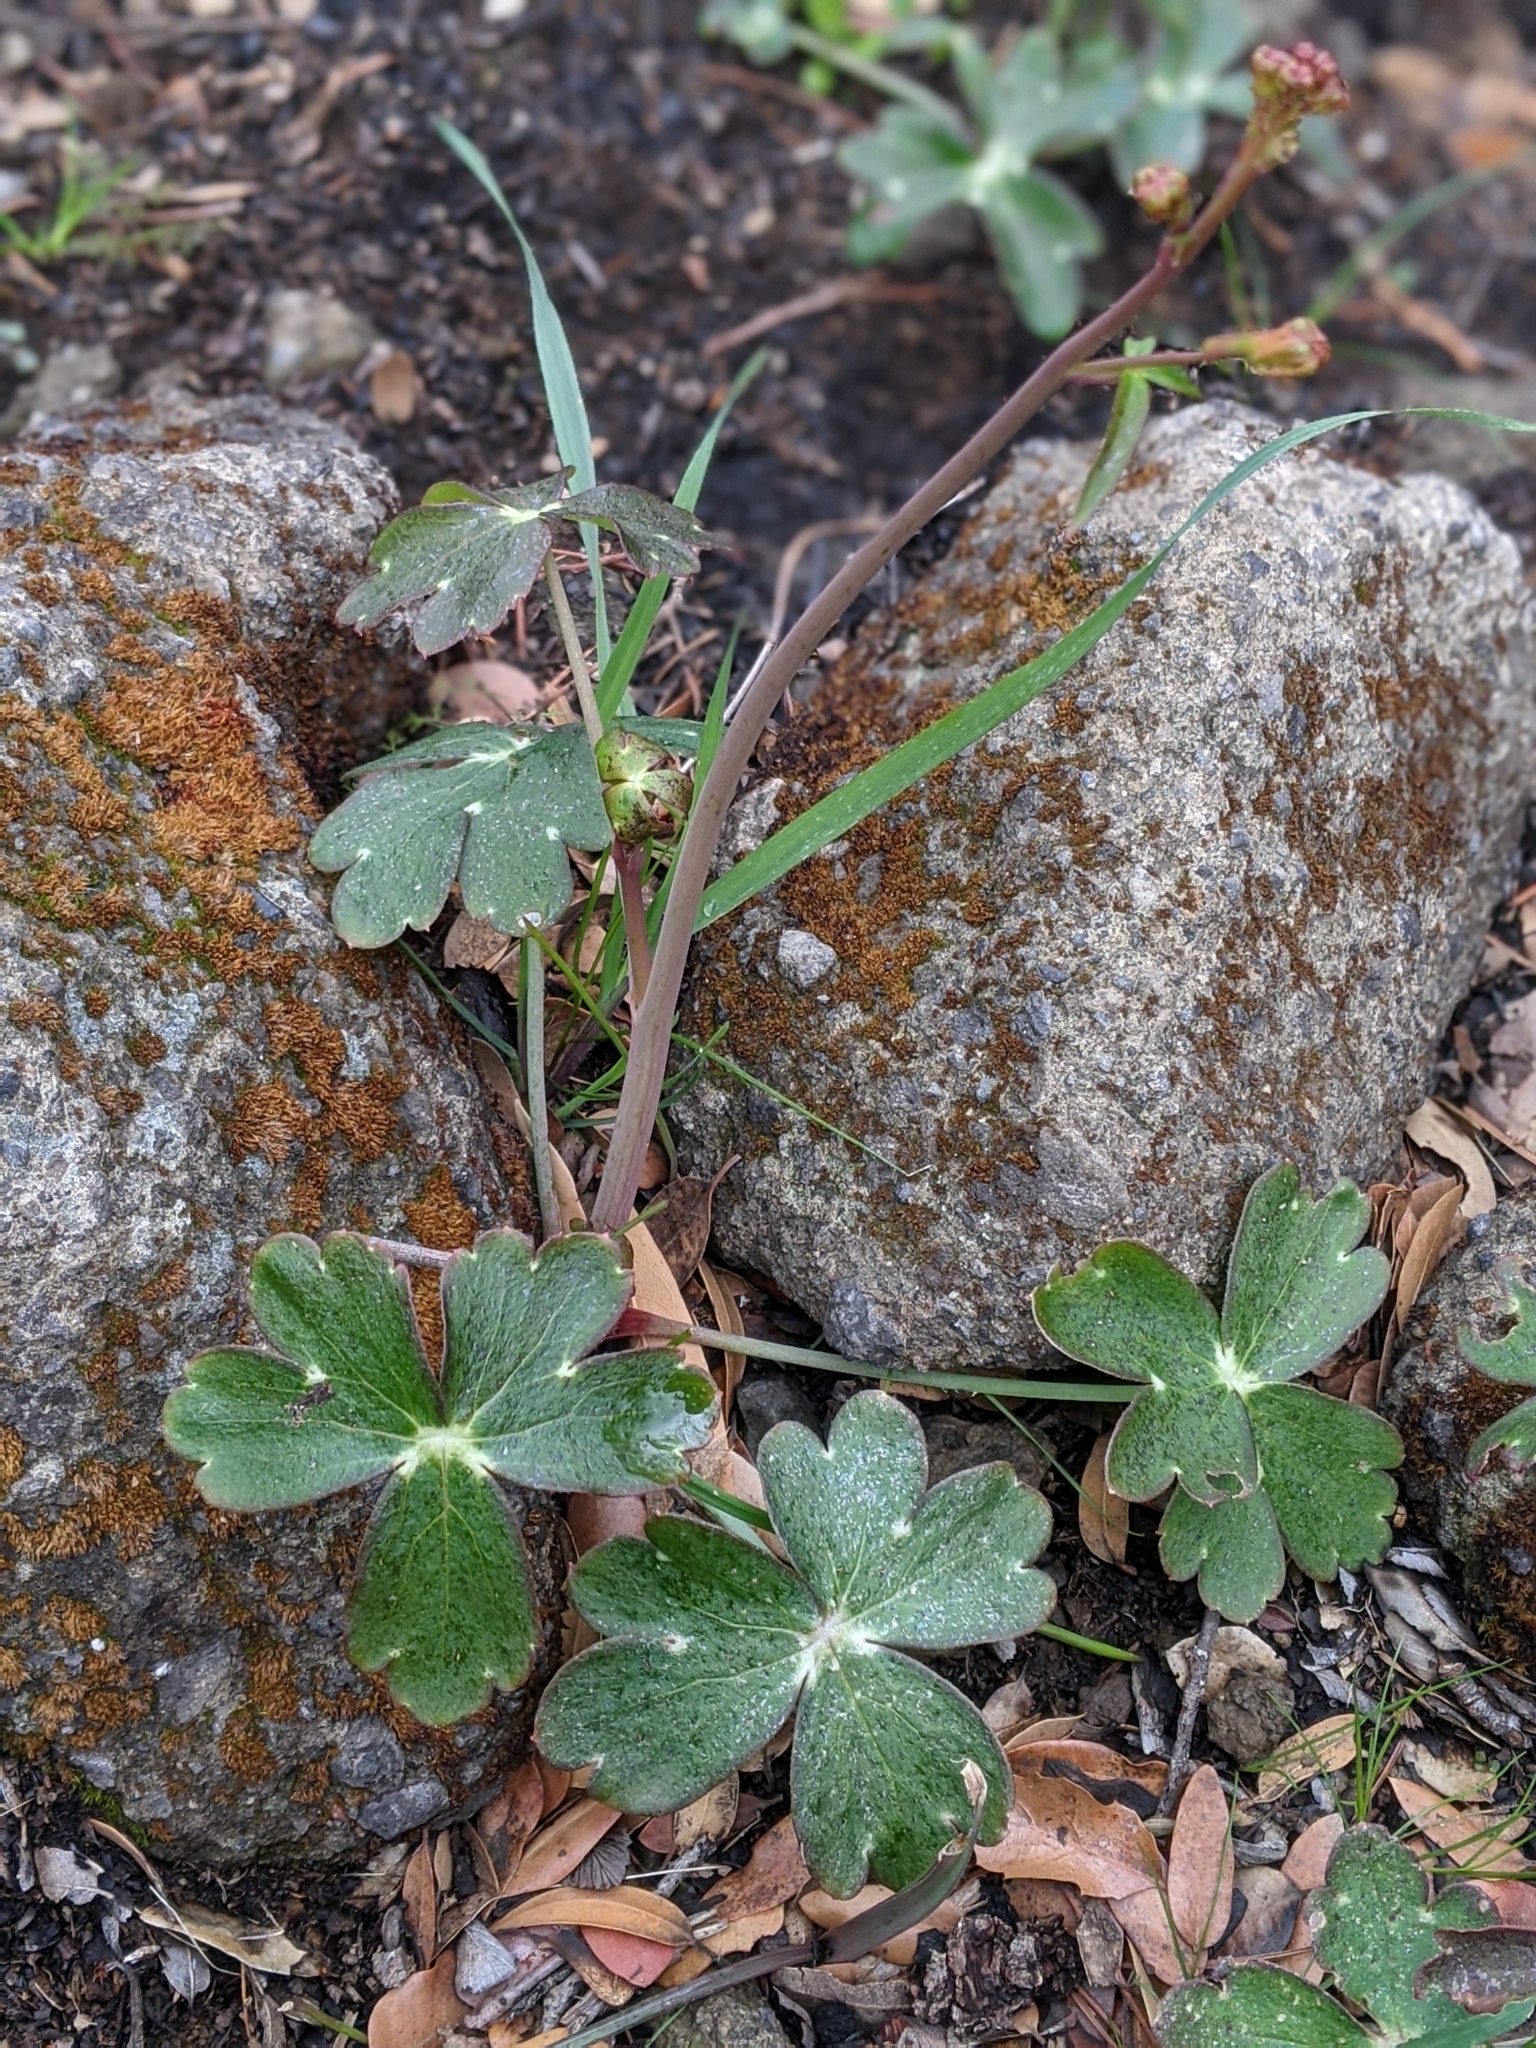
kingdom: Plantae
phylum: Tracheophyta
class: Magnoliopsida
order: Ranunculales
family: Ranunculaceae
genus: Delphinium
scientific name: Delphinium nudicaule
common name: Red larkspur
